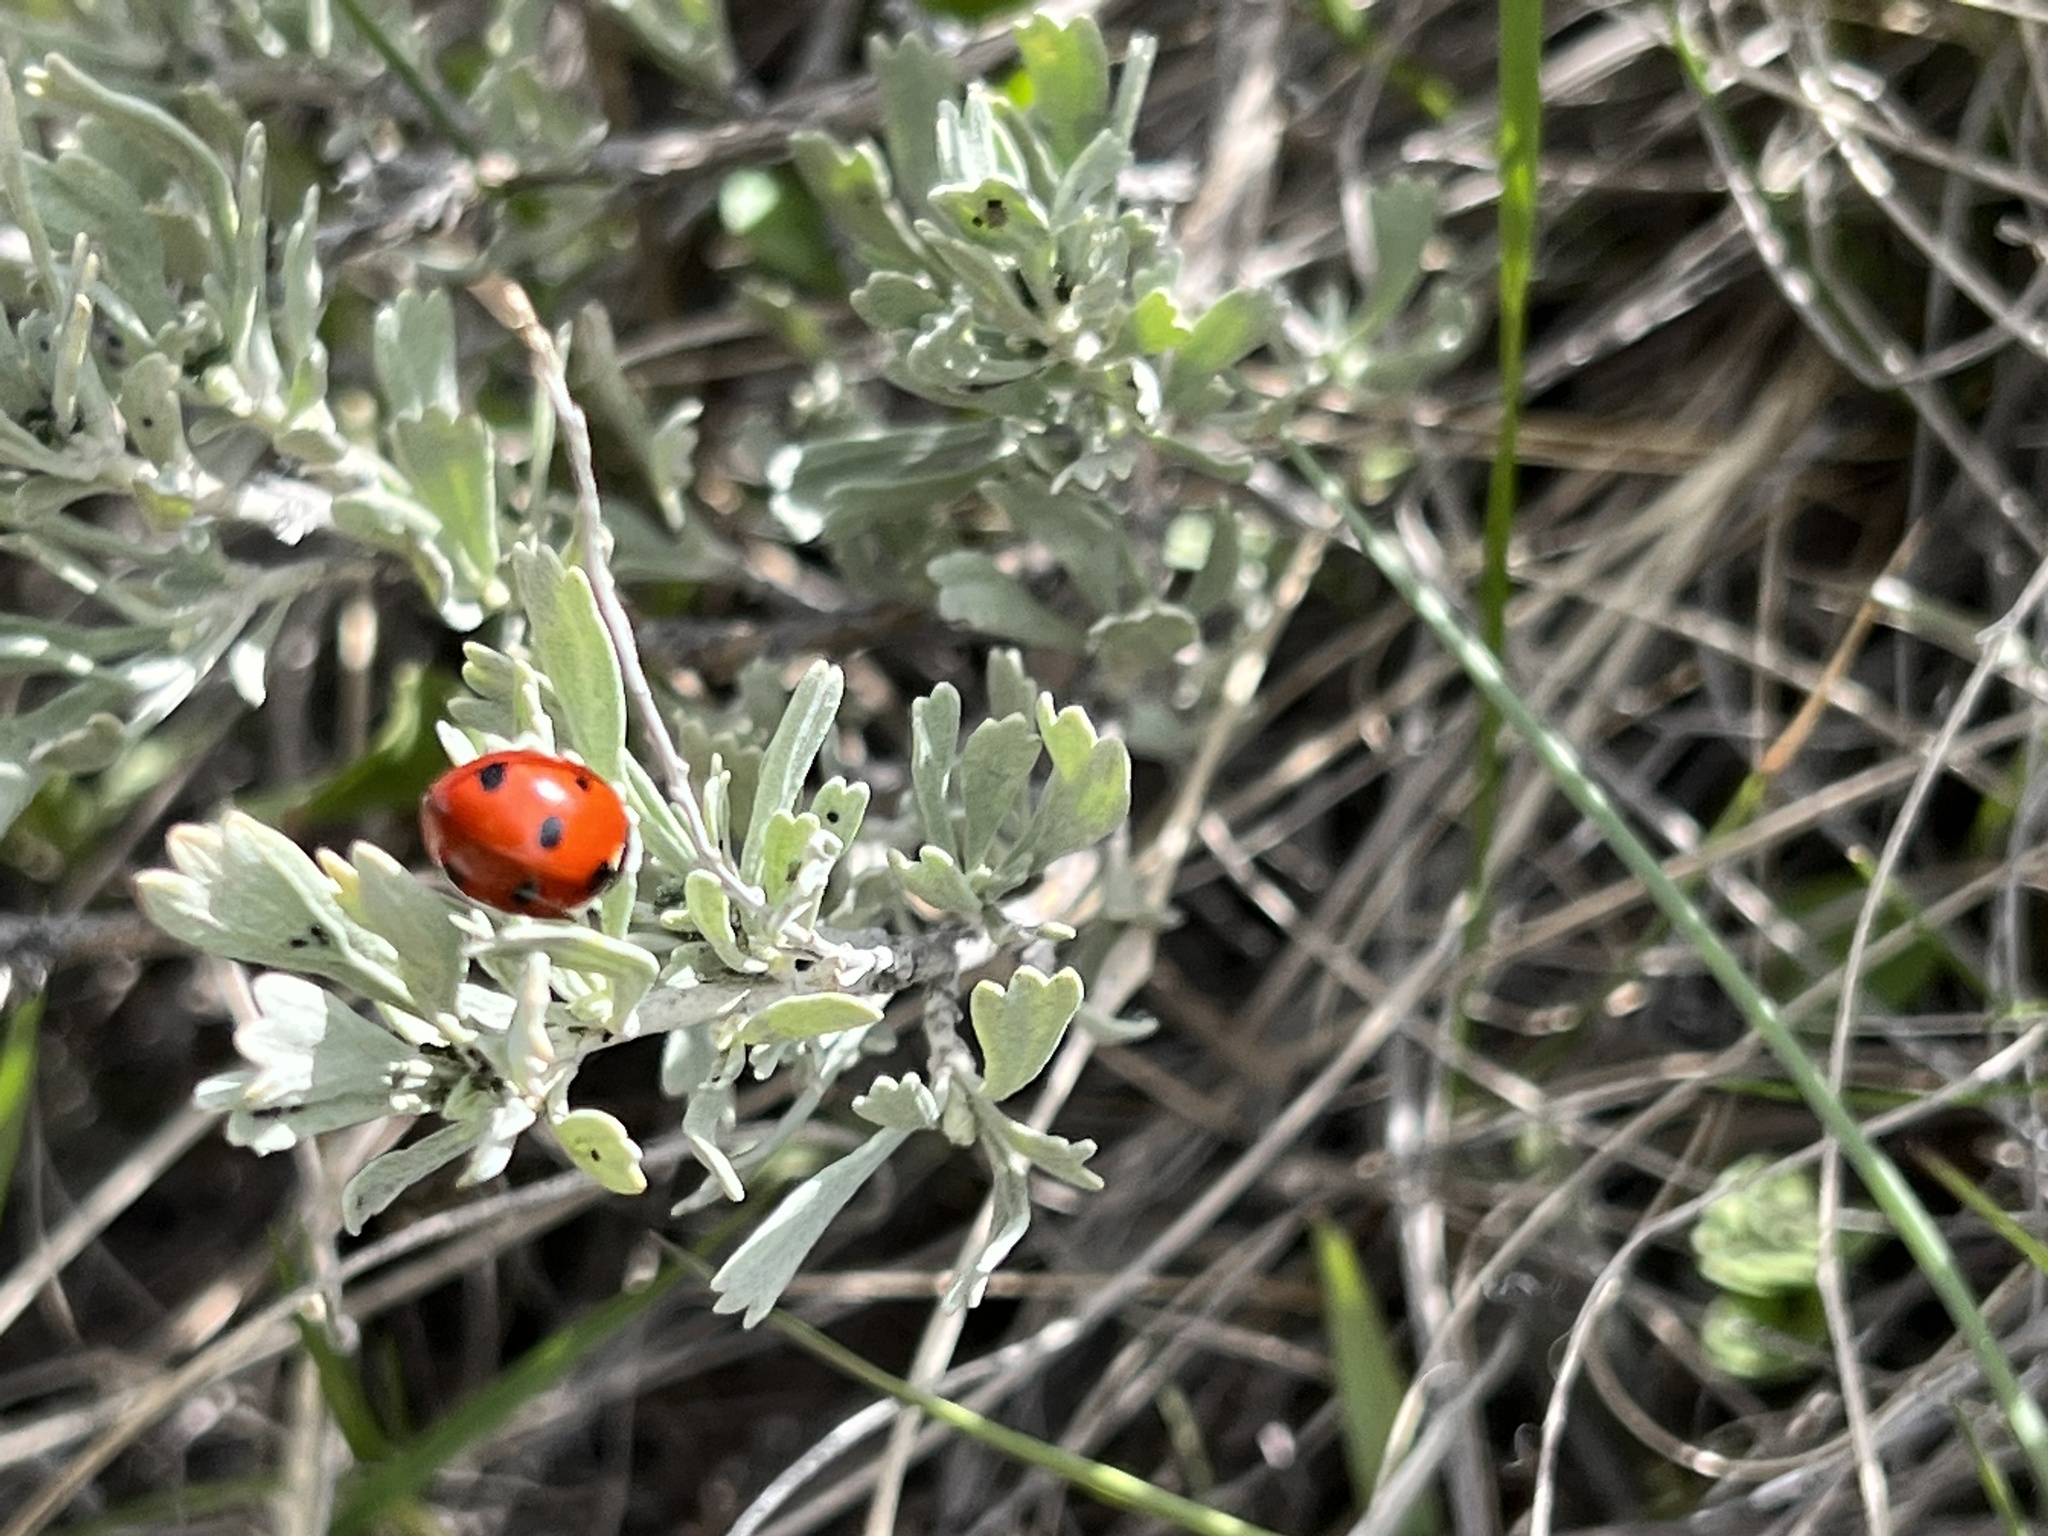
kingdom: Animalia
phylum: Arthropoda
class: Insecta
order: Coleoptera
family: Coccinellidae
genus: Coccinella
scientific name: Coccinella septempunctata
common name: Sevenspotted lady beetle
